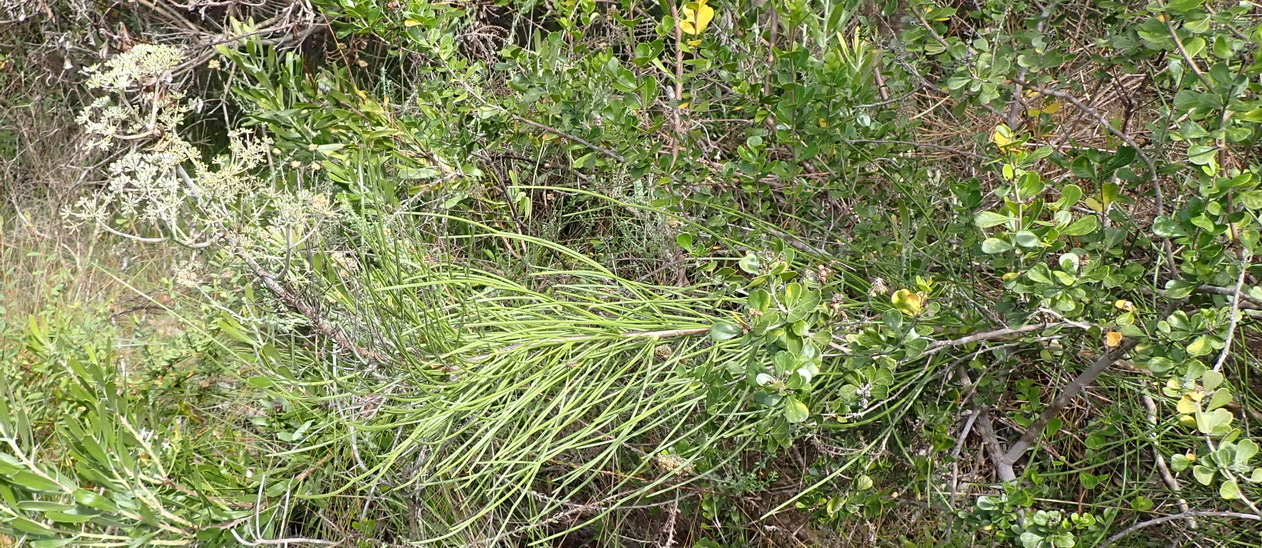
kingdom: Plantae
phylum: Tracheophyta
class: Magnoliopsida
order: Apiales
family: Apiaceae
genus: Anginon
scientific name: Anginon difforme
